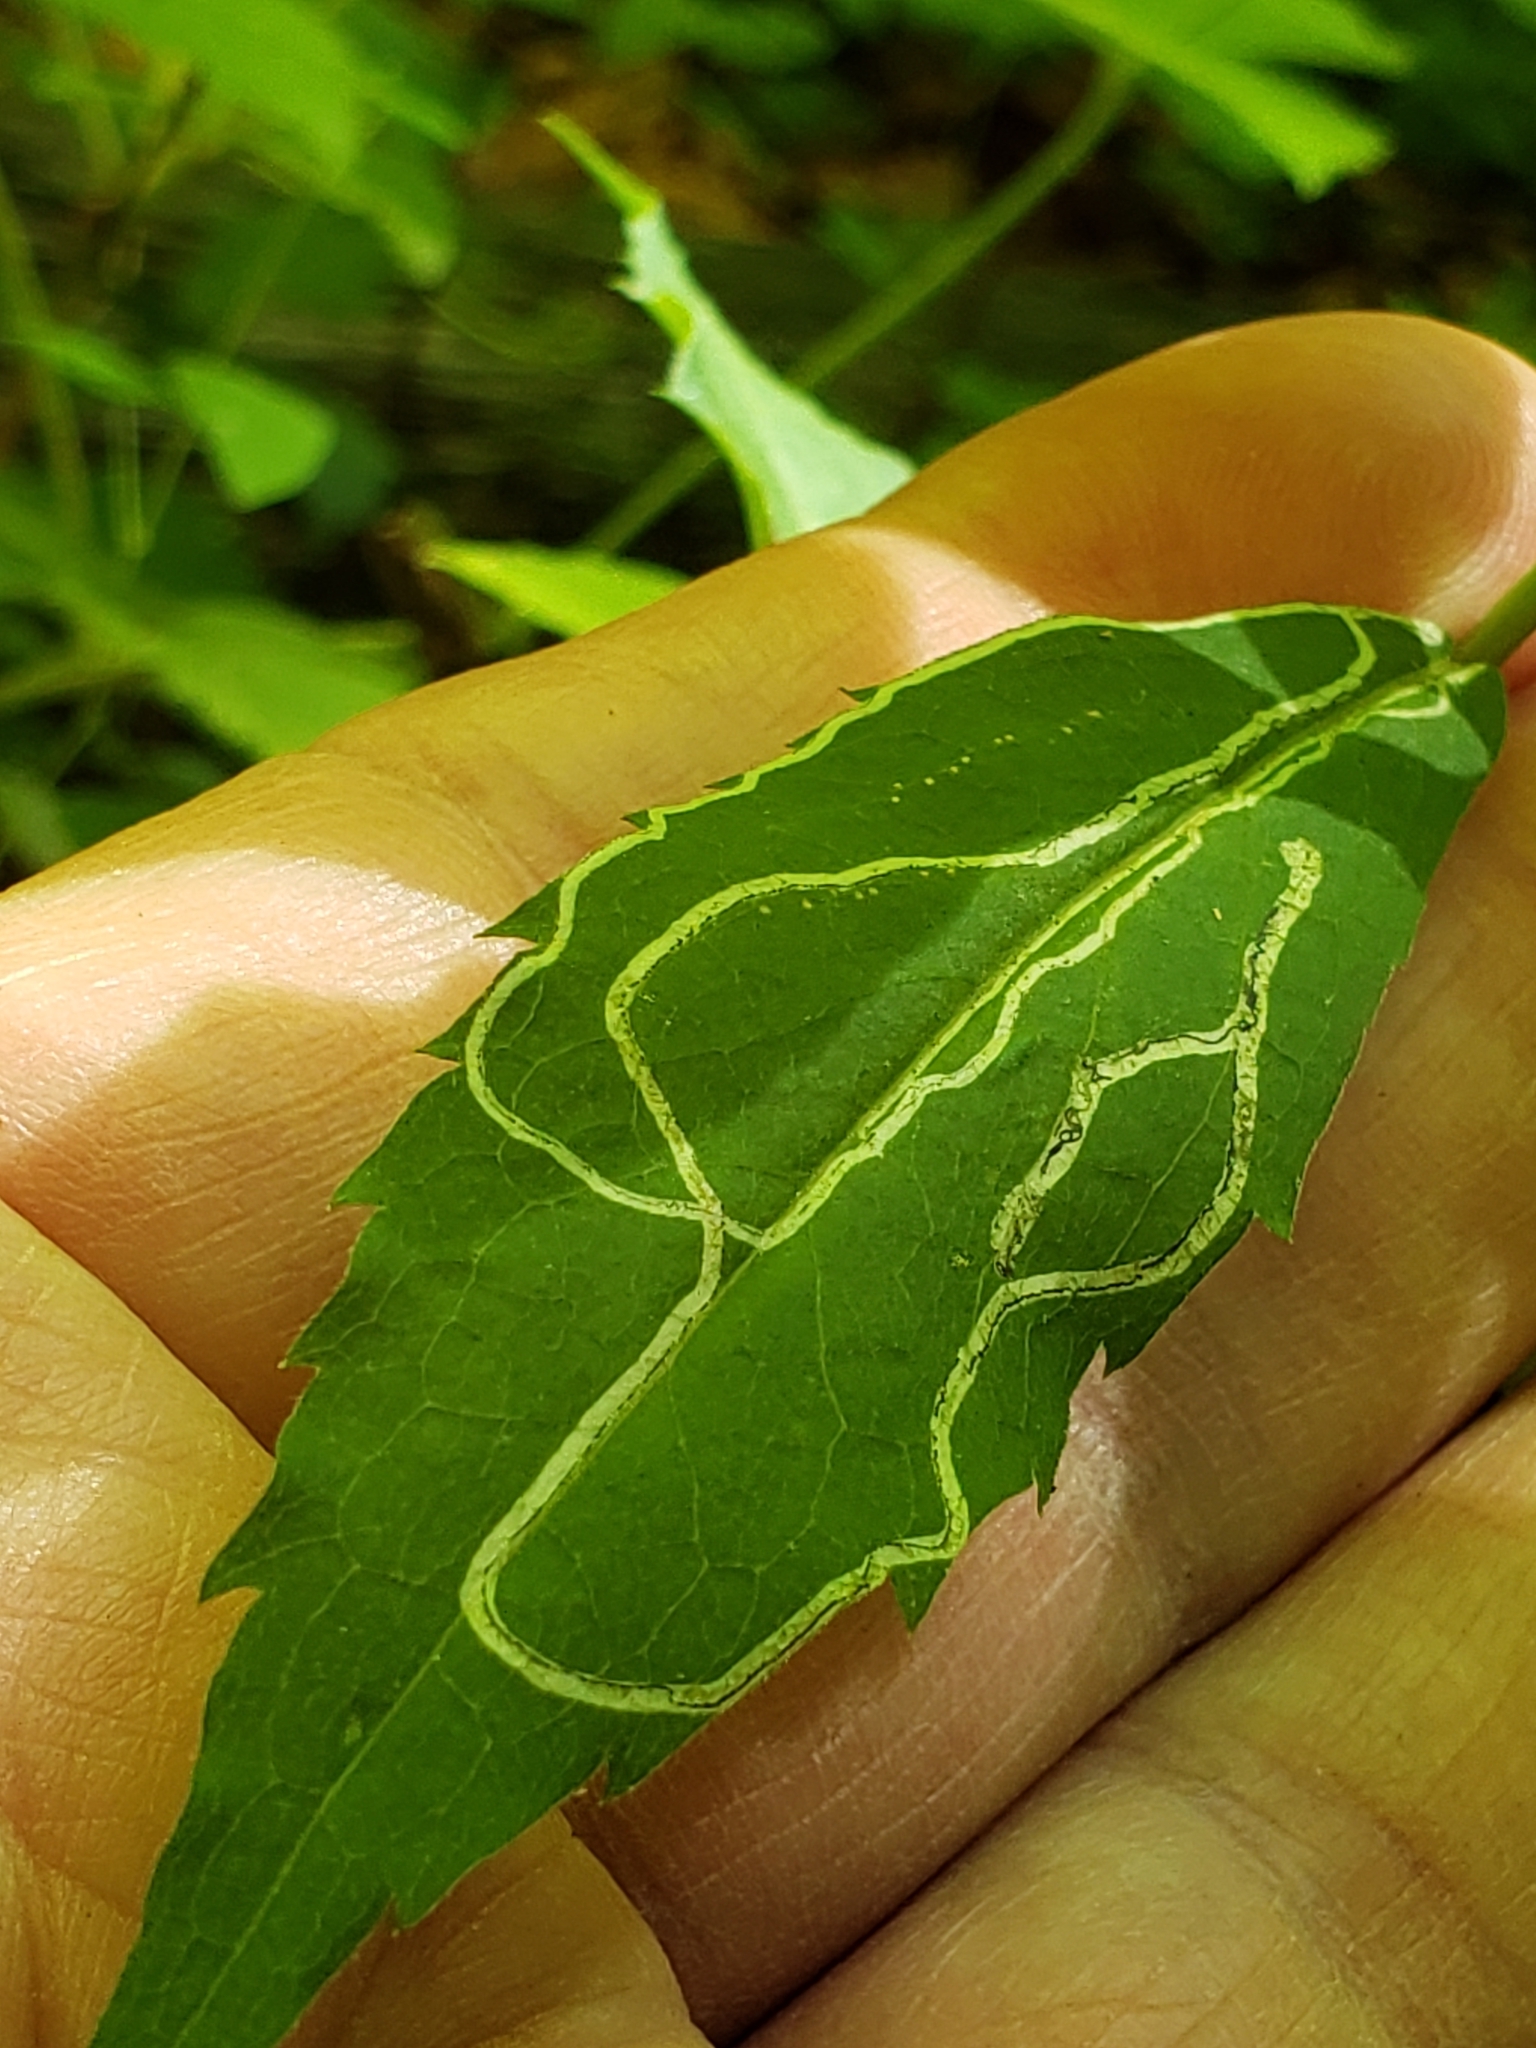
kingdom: Animalia
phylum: Arthropoda
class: Insecta
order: Diptera
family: Agromyzidae
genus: Ophiomyia
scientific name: Ophiomyia maura
